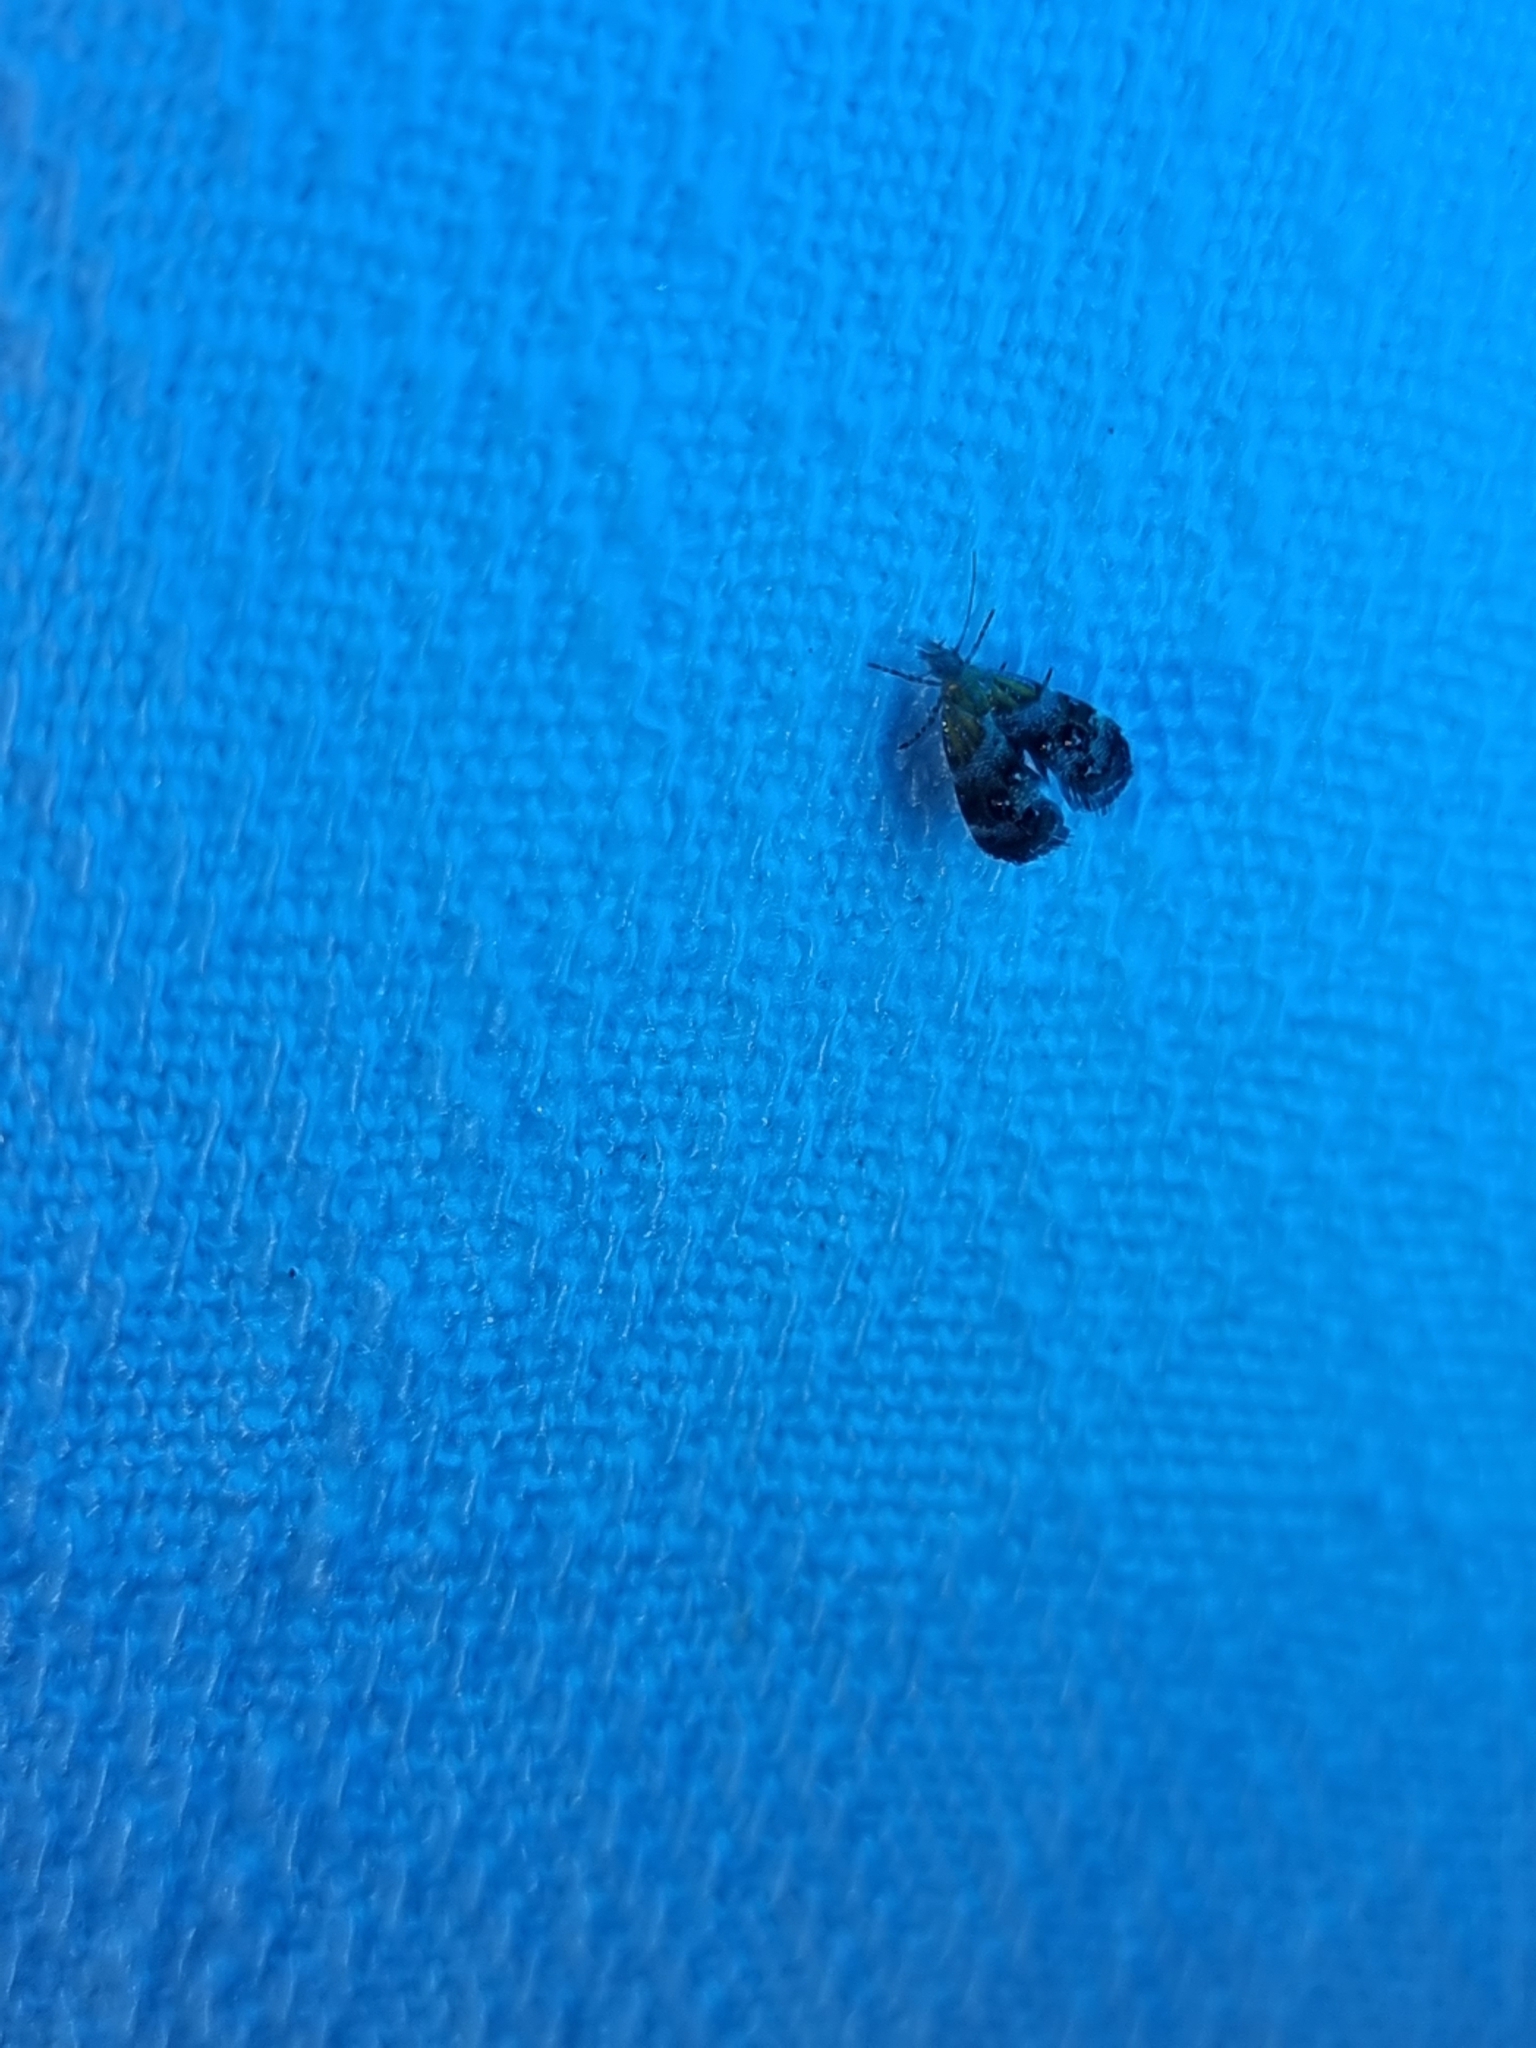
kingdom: Animalia
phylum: Arthropoda
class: Insecta
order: Lepidoptera
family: Choreutidae
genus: Tebenna
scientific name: Tebenna micalis
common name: Vagrant twitcher
